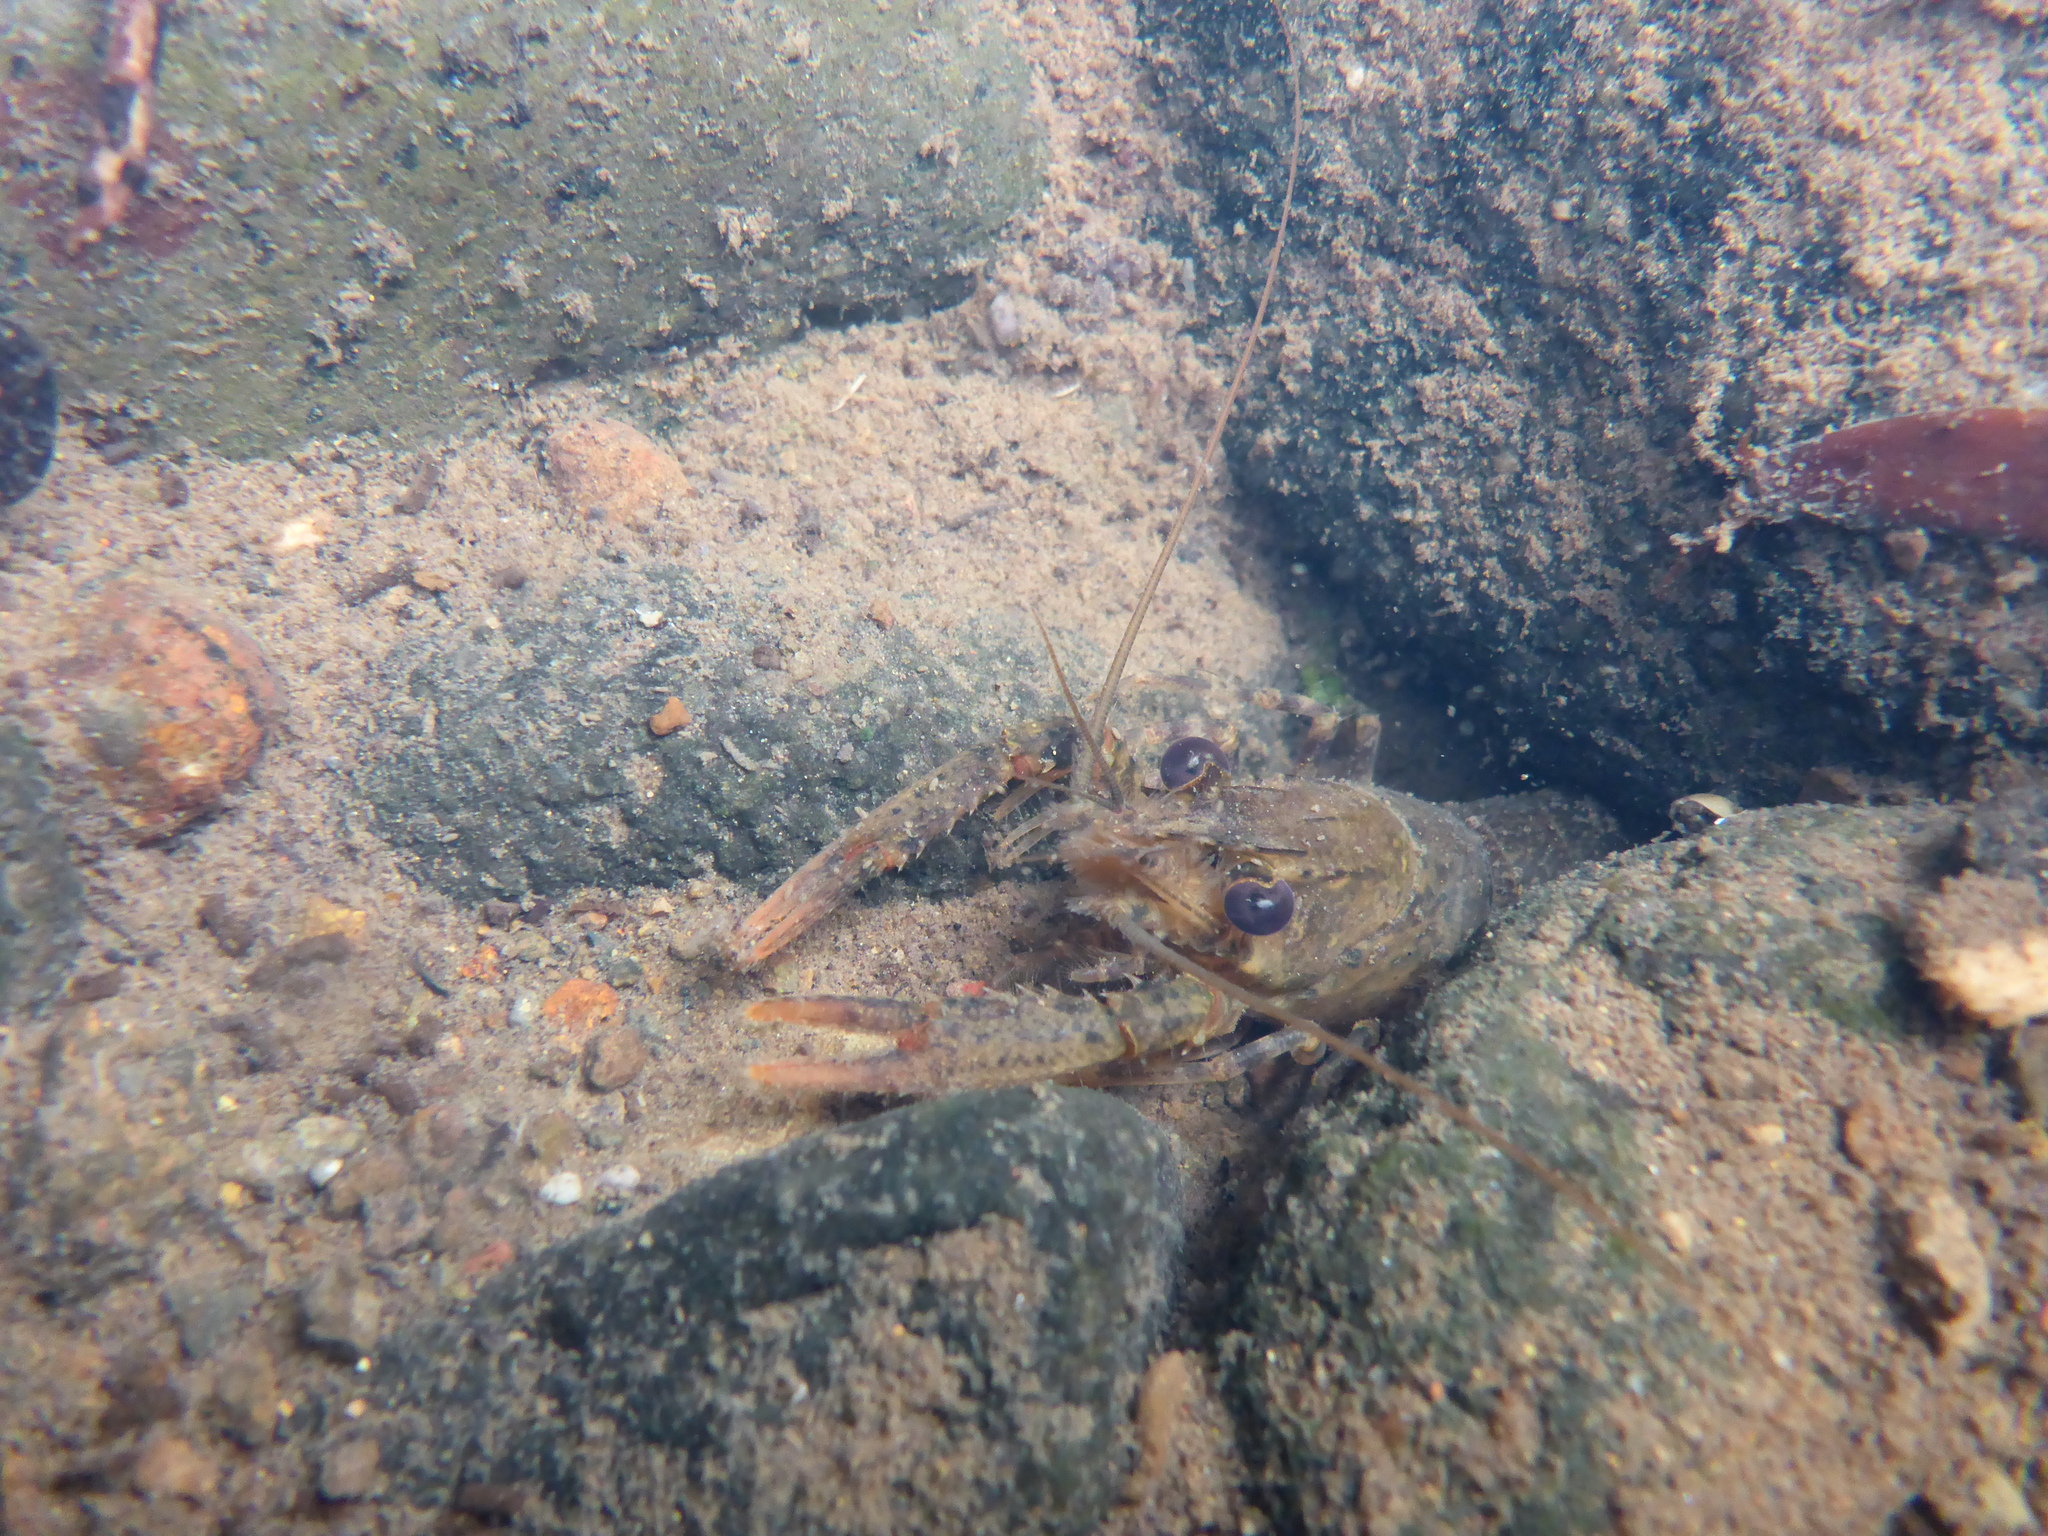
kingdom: Animalia
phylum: Arthropoda
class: Malacostraca
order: Decapoda
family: Parastacidae
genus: Paranephrops
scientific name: Paranephrops planifrons
